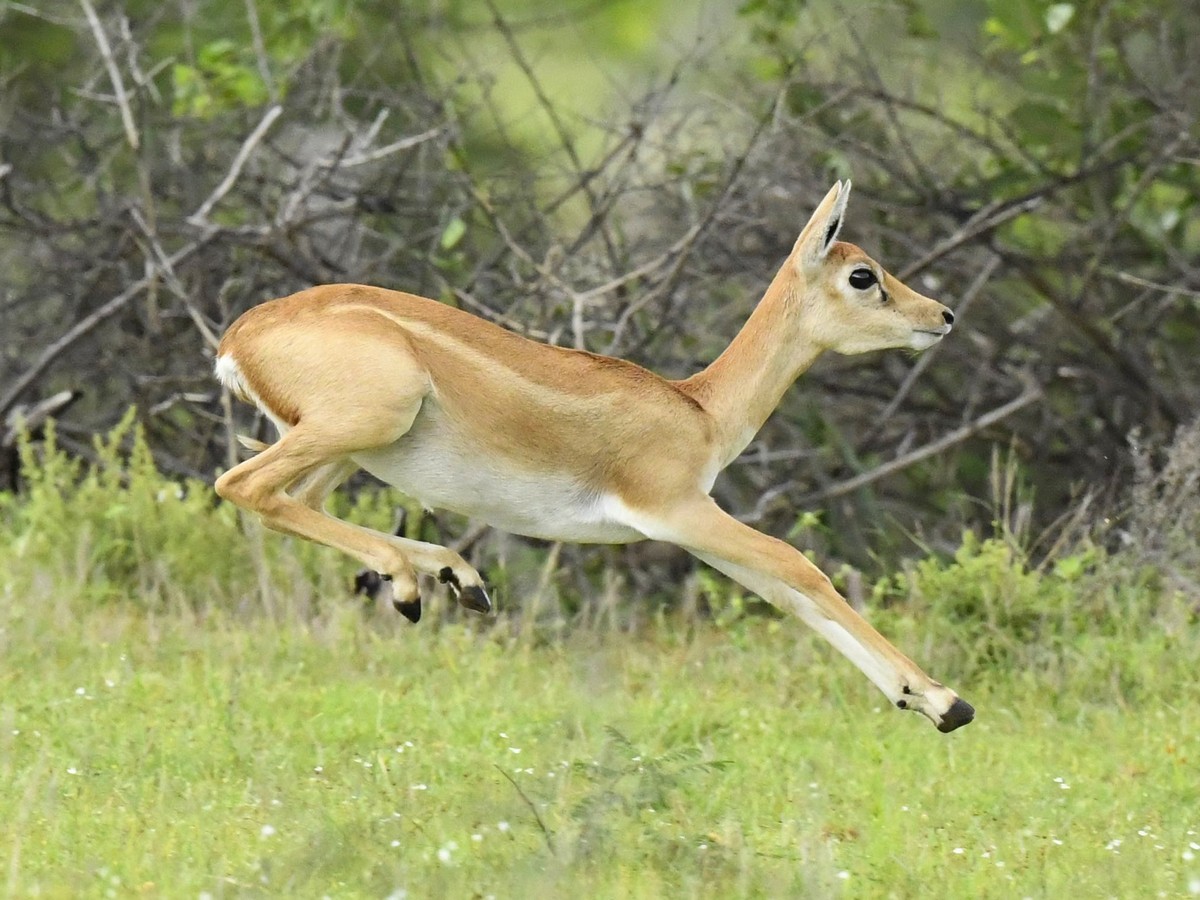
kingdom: Animalia
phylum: Chordata
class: Mammalia
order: Artiodactyla
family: Bovidae
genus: Antilope
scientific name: Antilope cervicapra
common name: Blackbuck
